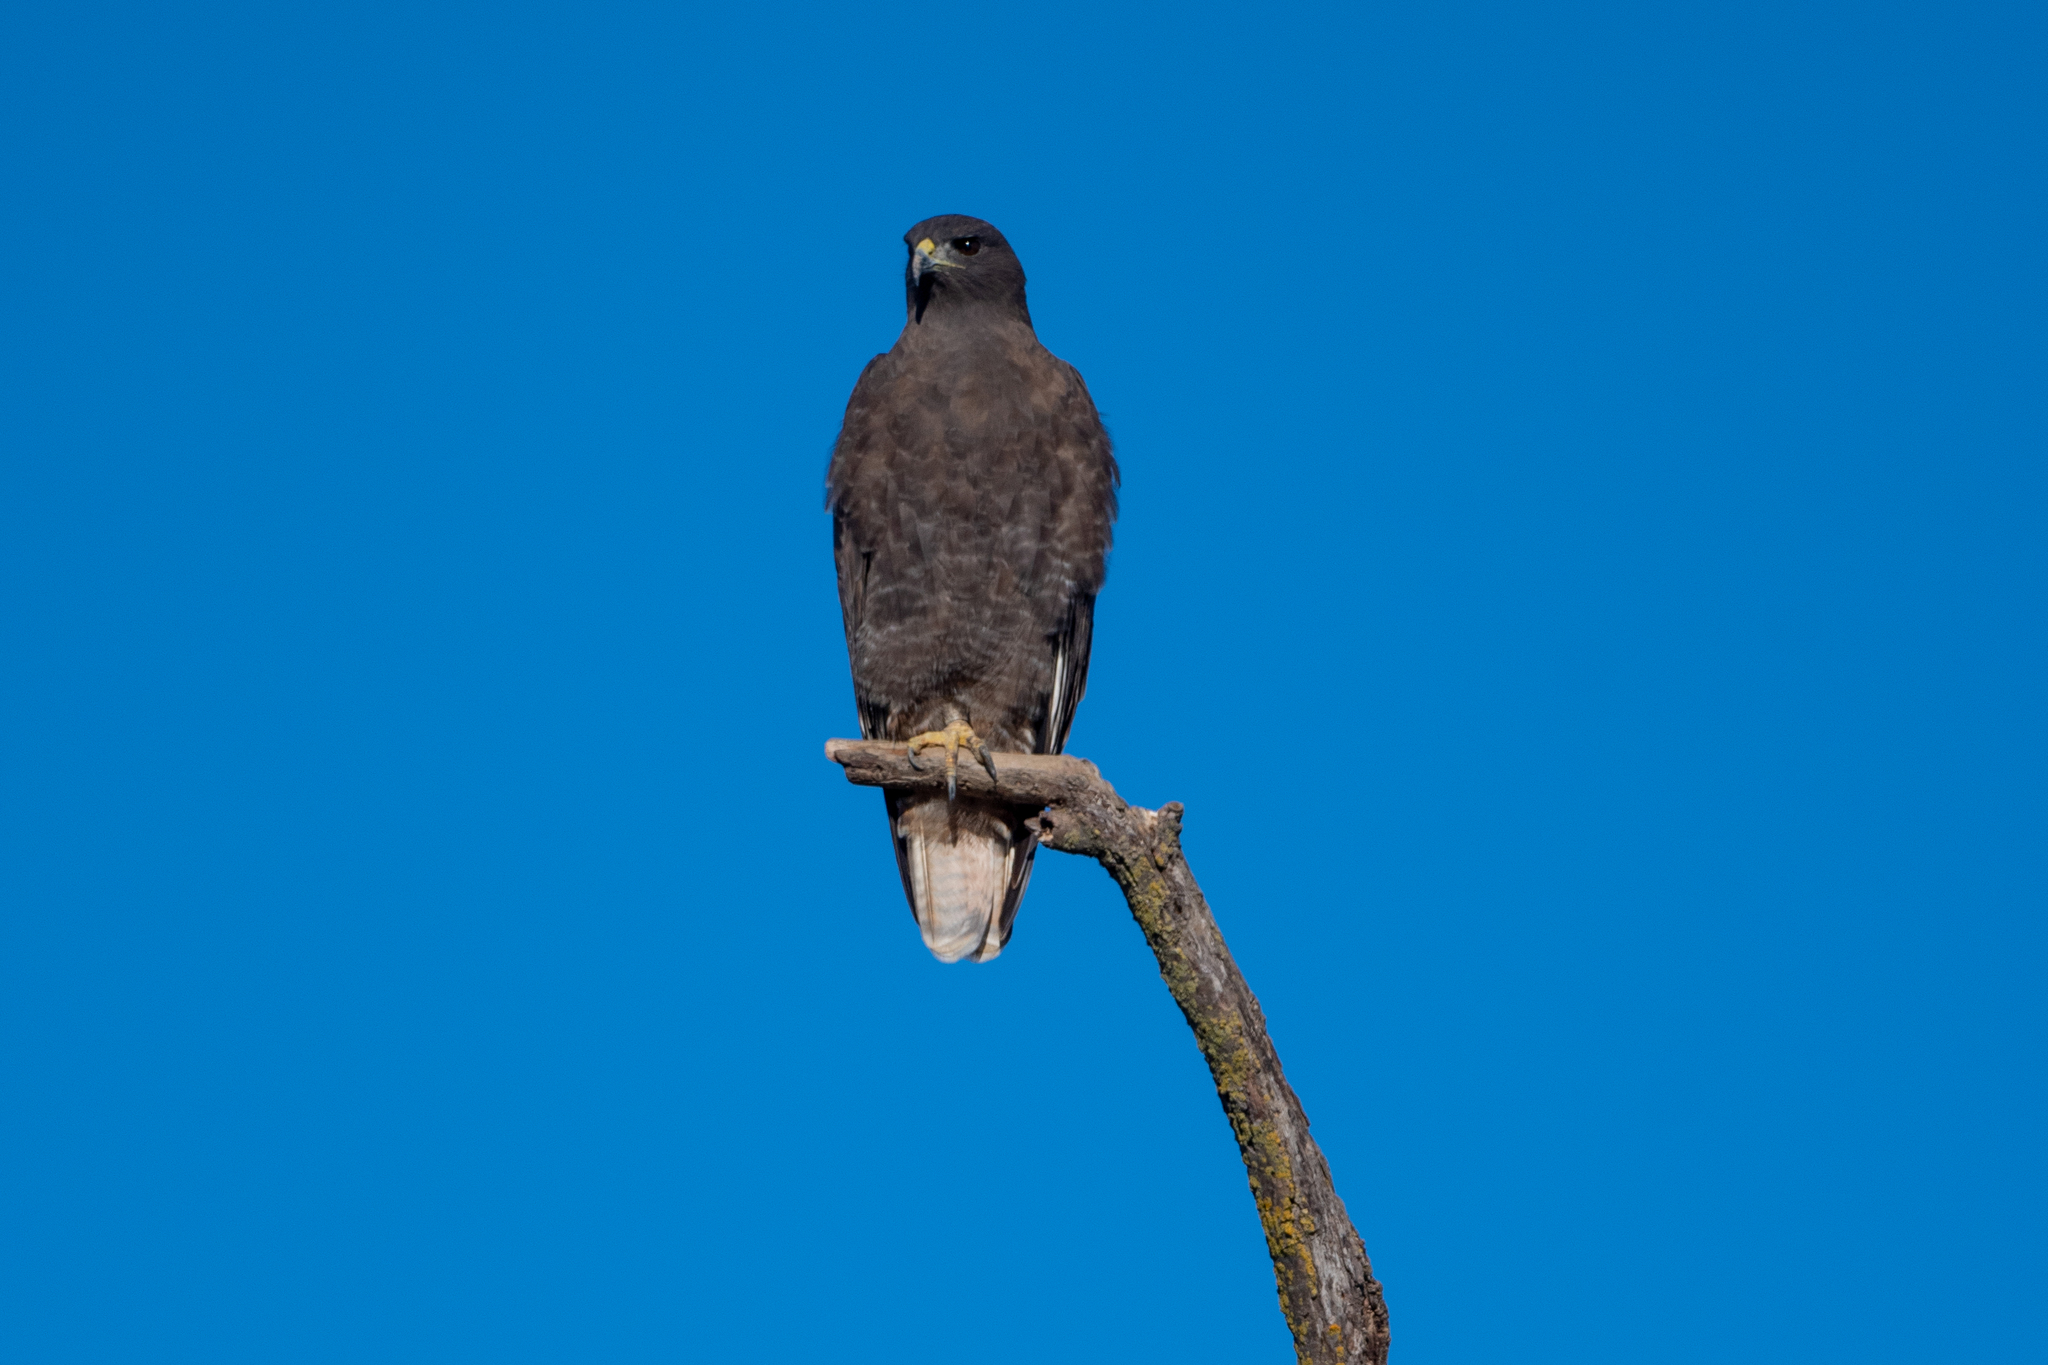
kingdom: Animalia
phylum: Chordata
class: Aves
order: Accipitriformes
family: Accipitridae
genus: Buteo
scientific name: Buteo jamaicensis
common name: Red-tailed hawk
